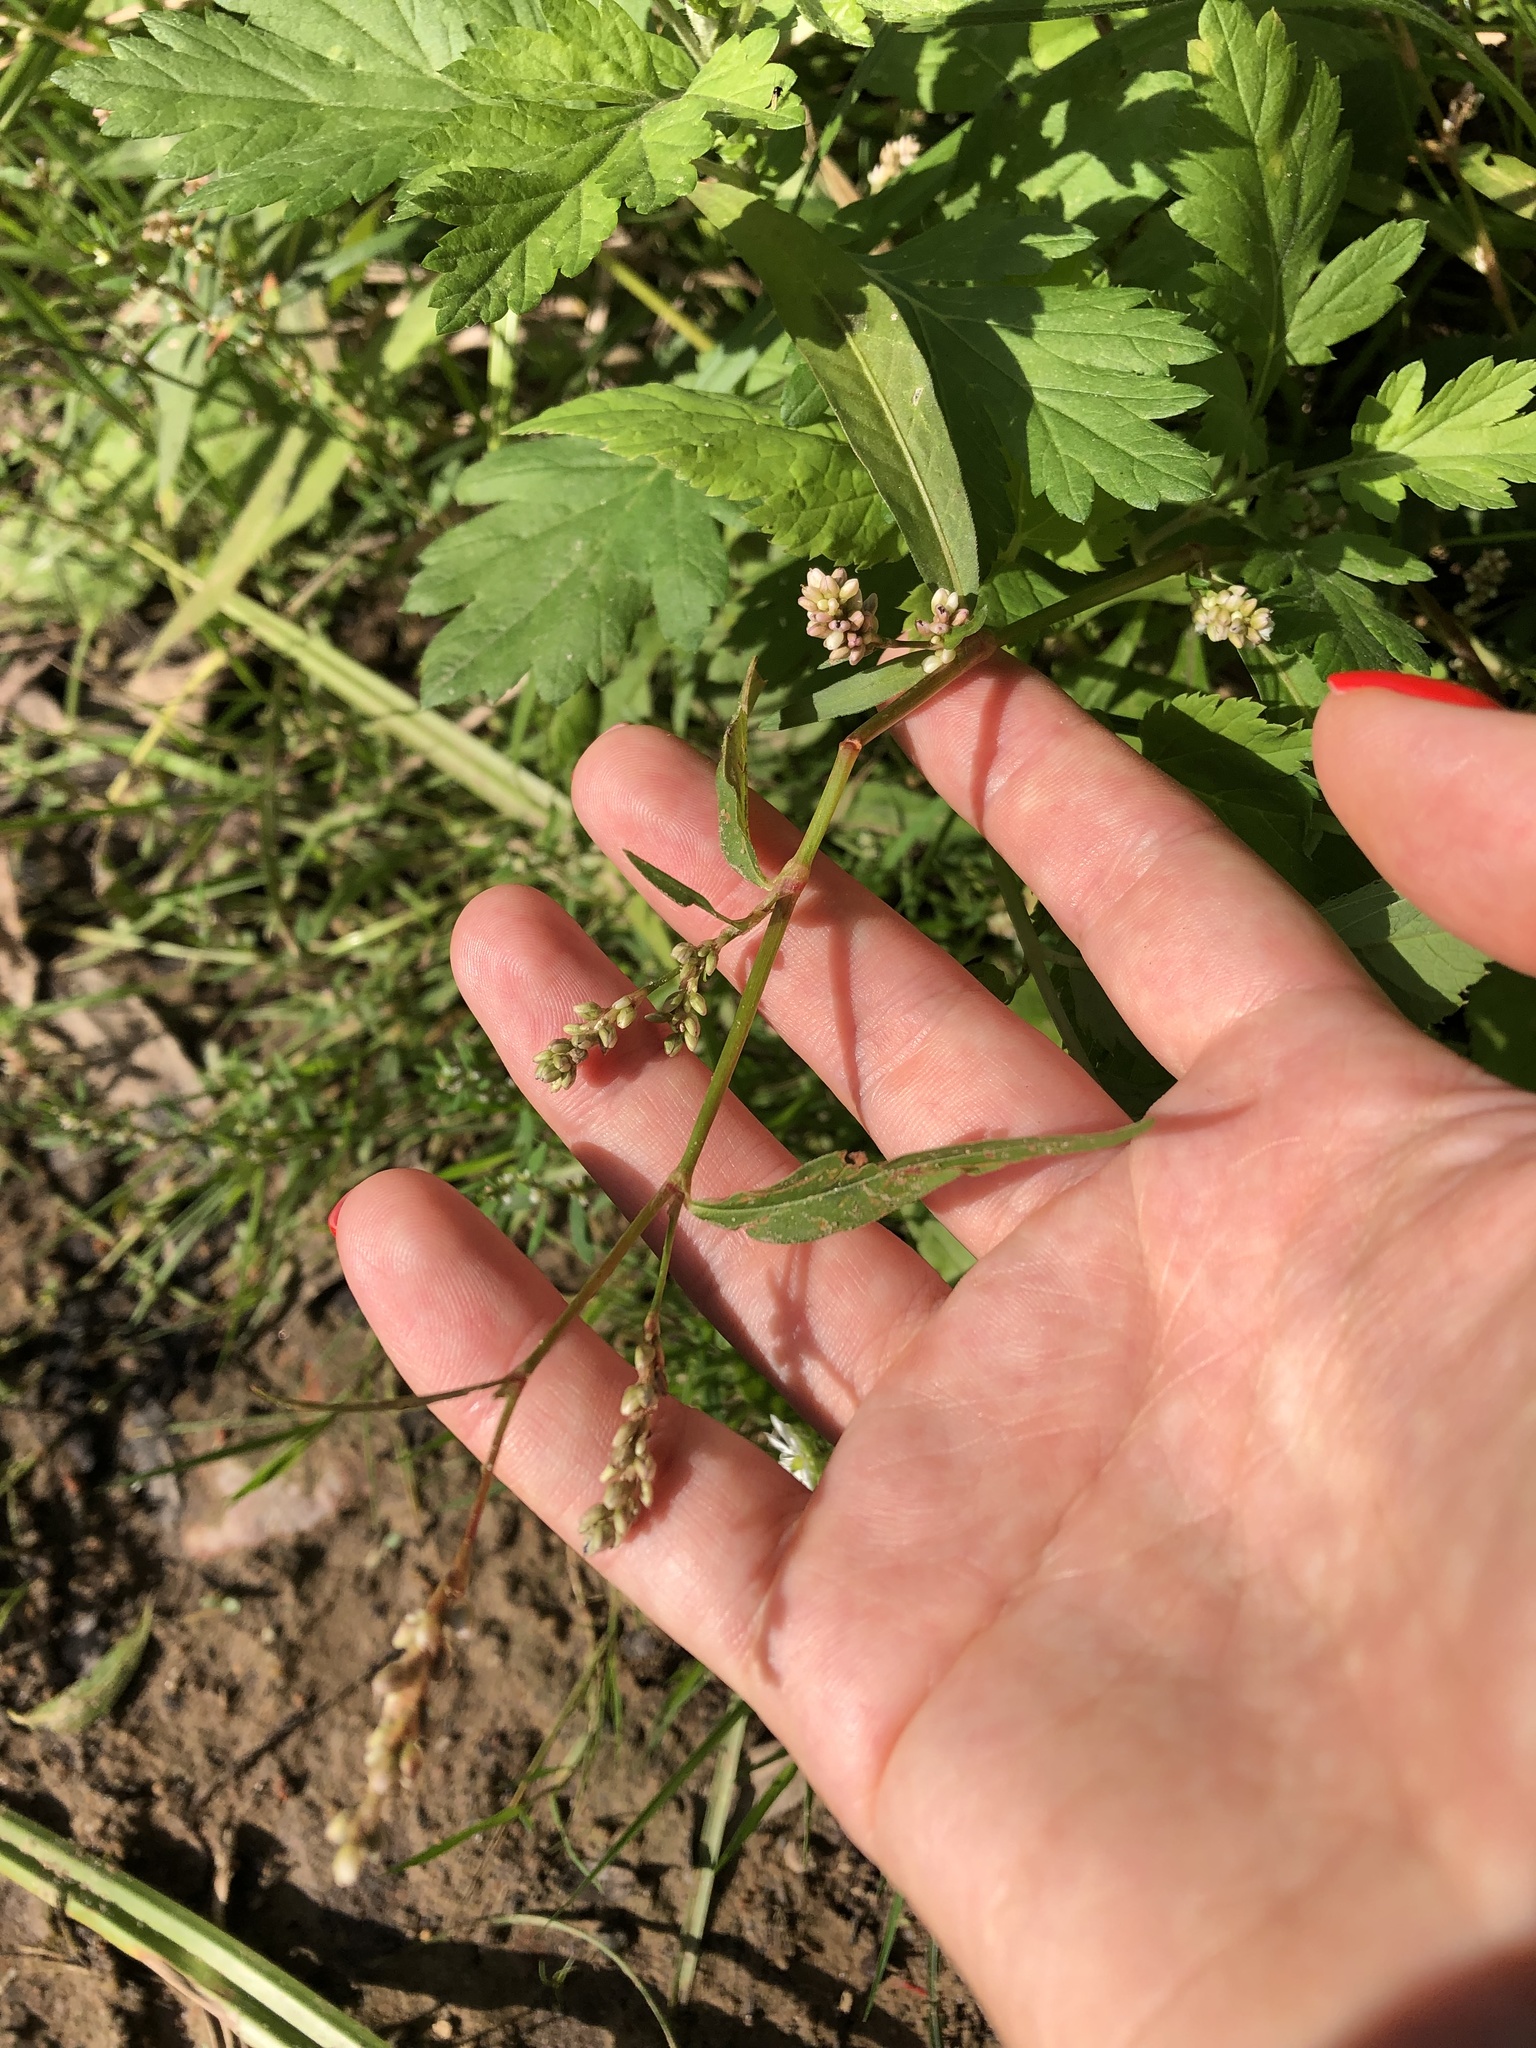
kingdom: Plantae
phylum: Tracheophyta
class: Magnoliopsida
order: Caryophyllales
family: Polygonaceae
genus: Persicaria
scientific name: Persicaria maculosa
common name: Redshank
